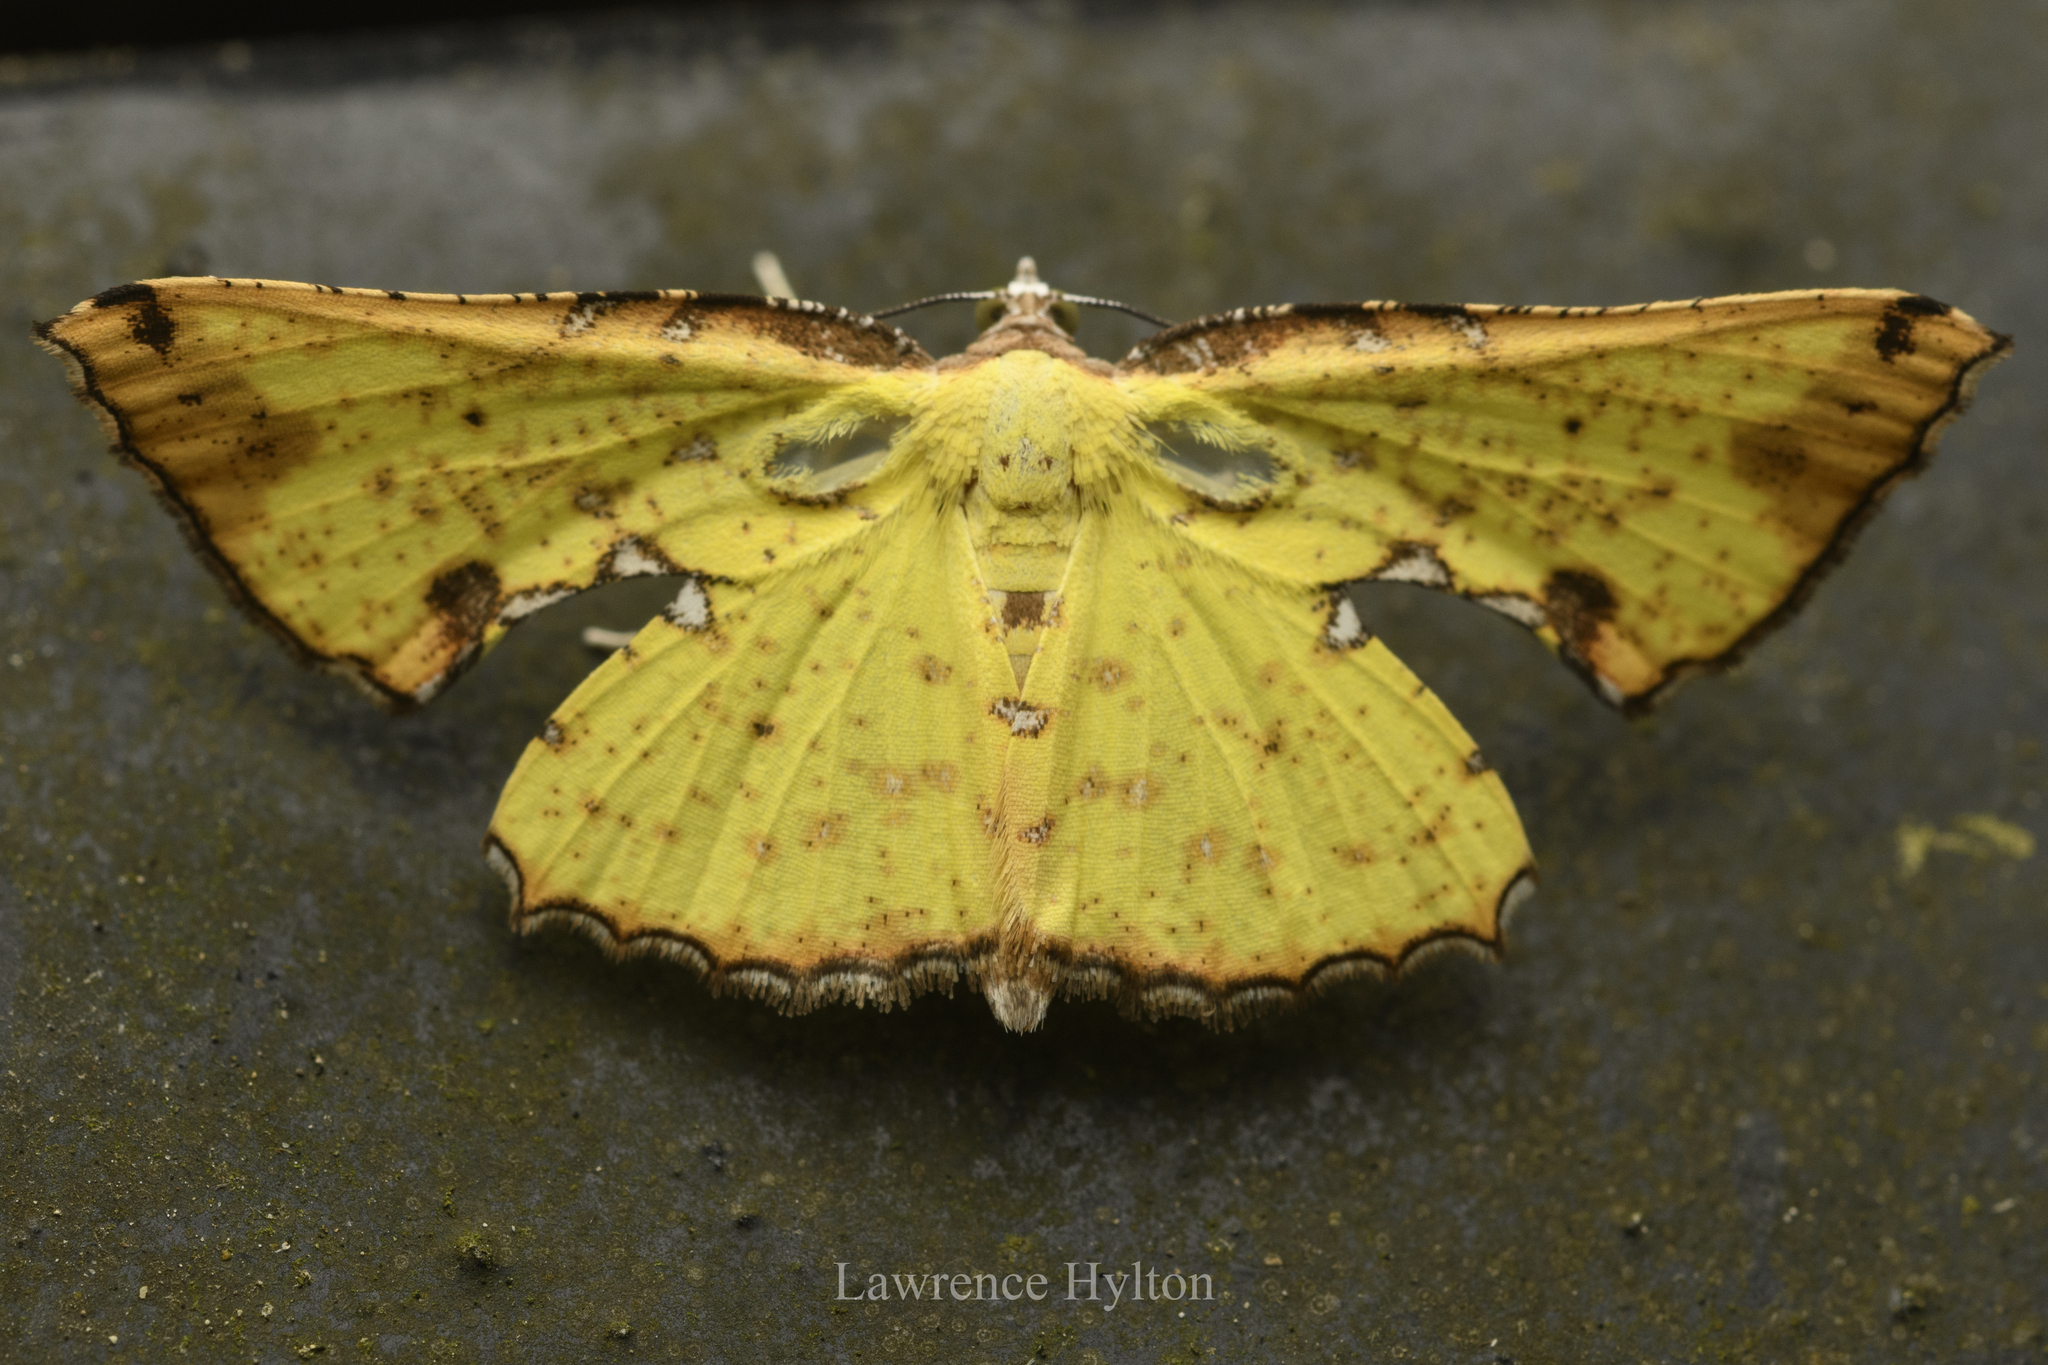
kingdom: Animalia
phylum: Arthropoda
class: Insecta
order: Lepidoptera
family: Geometridae
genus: Corymica
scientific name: Corymica arnearia
